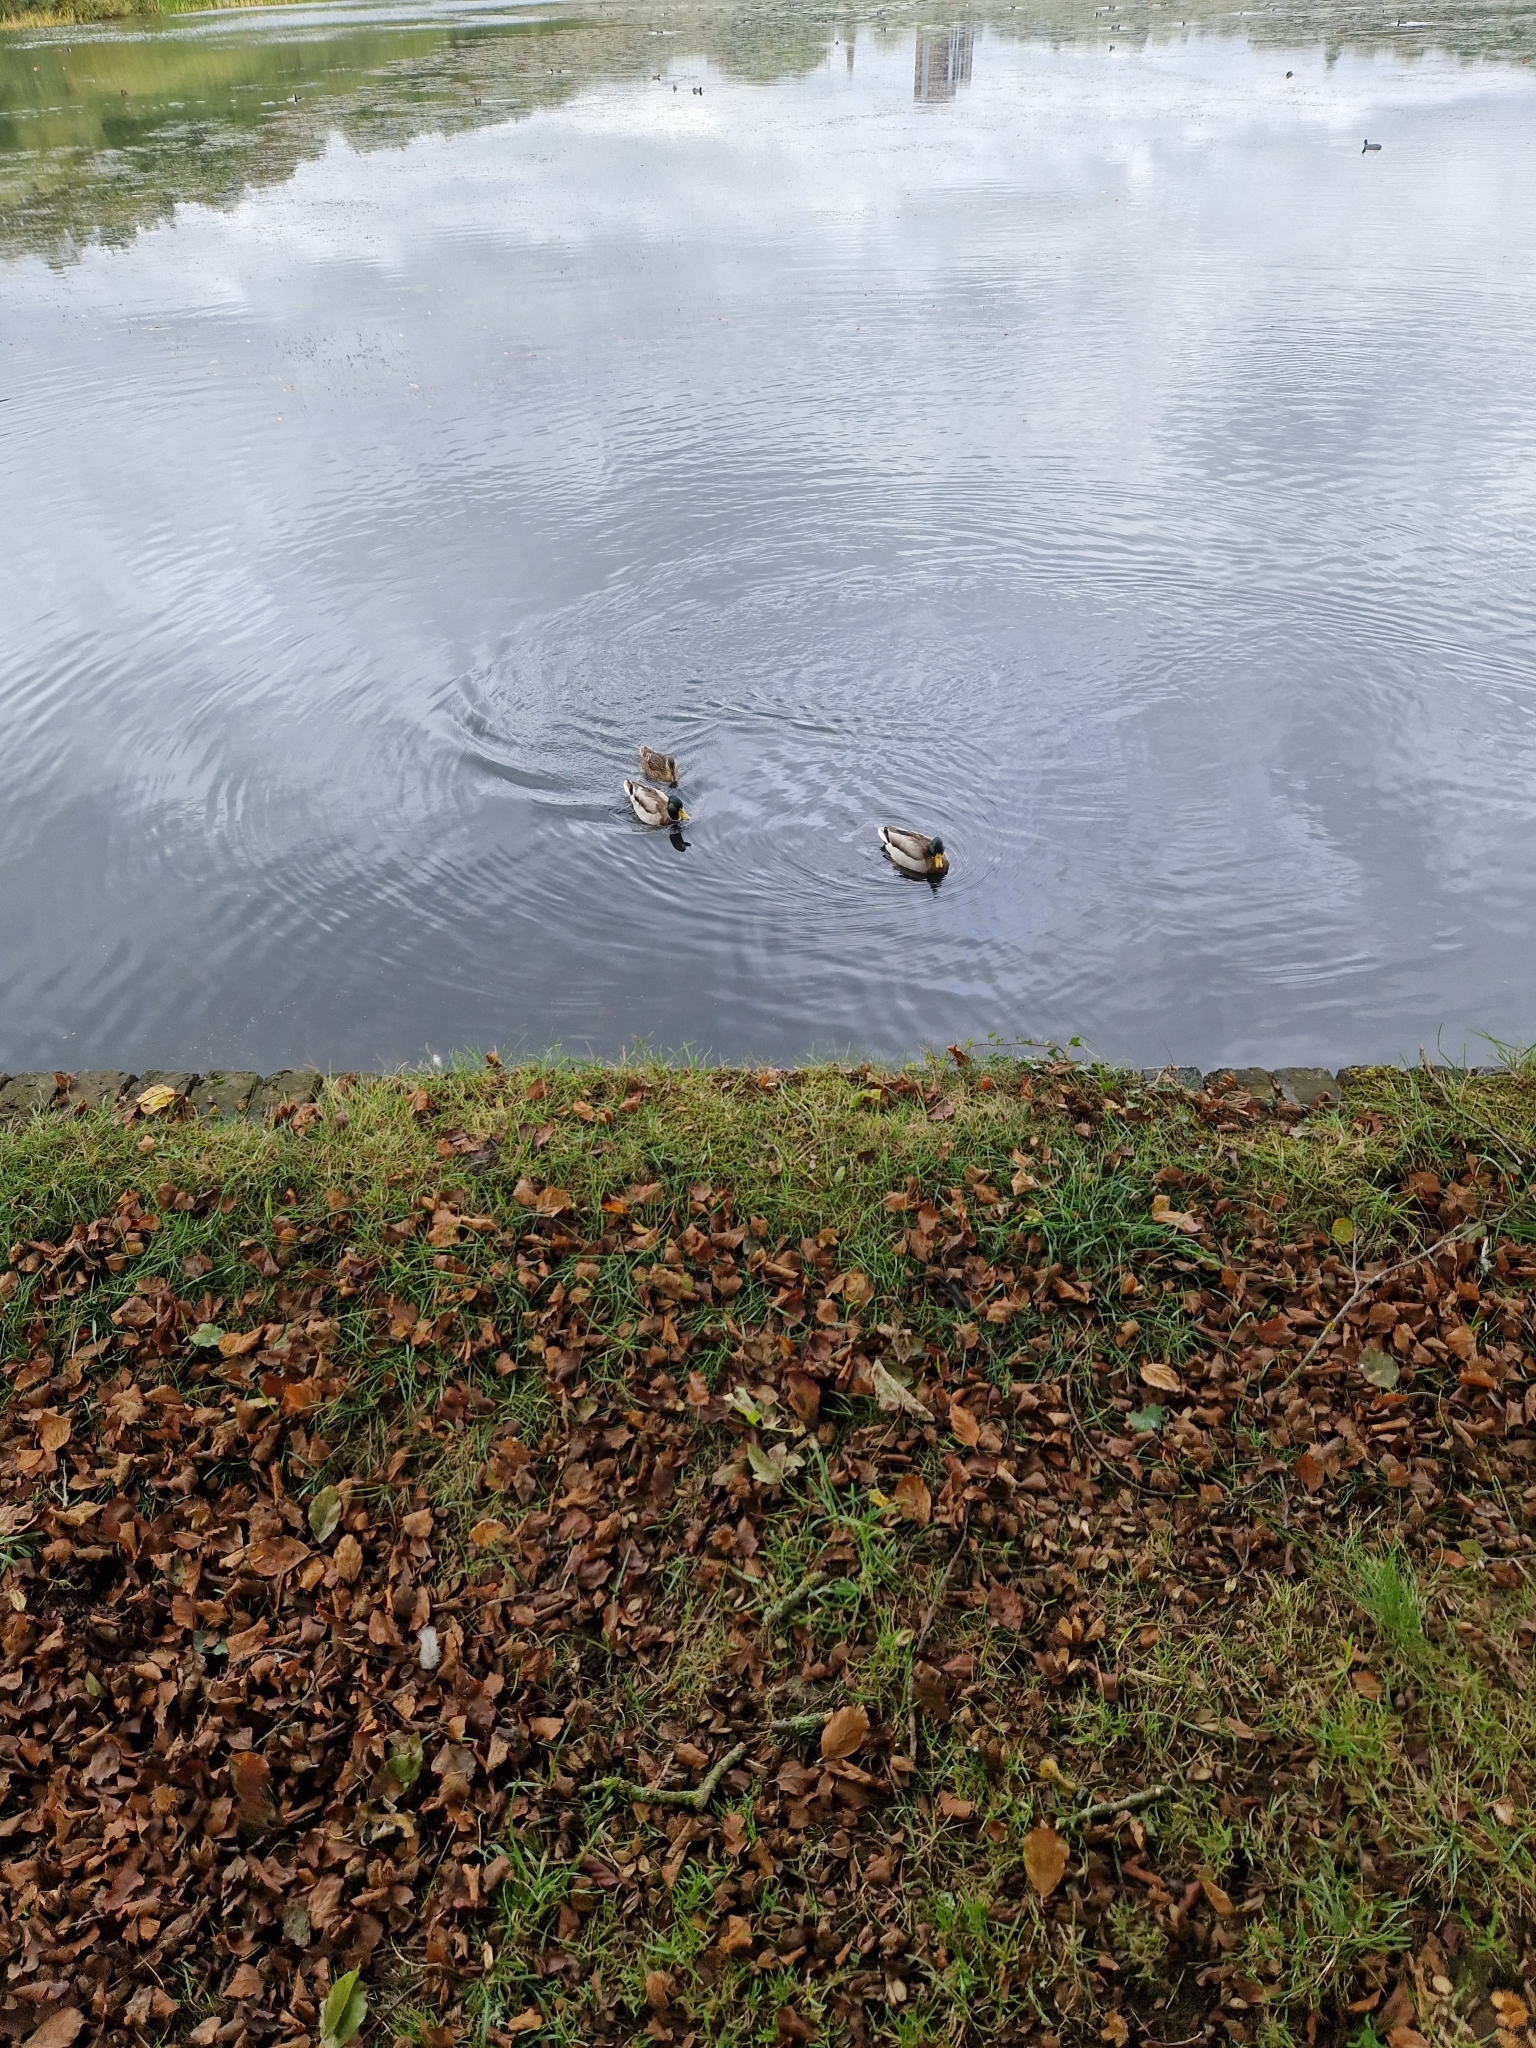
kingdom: Animalia
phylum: Chordata
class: Aves
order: Anseriformes
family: Anatidae
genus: Anas
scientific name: Anas platyrhynchos
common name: Mallard
